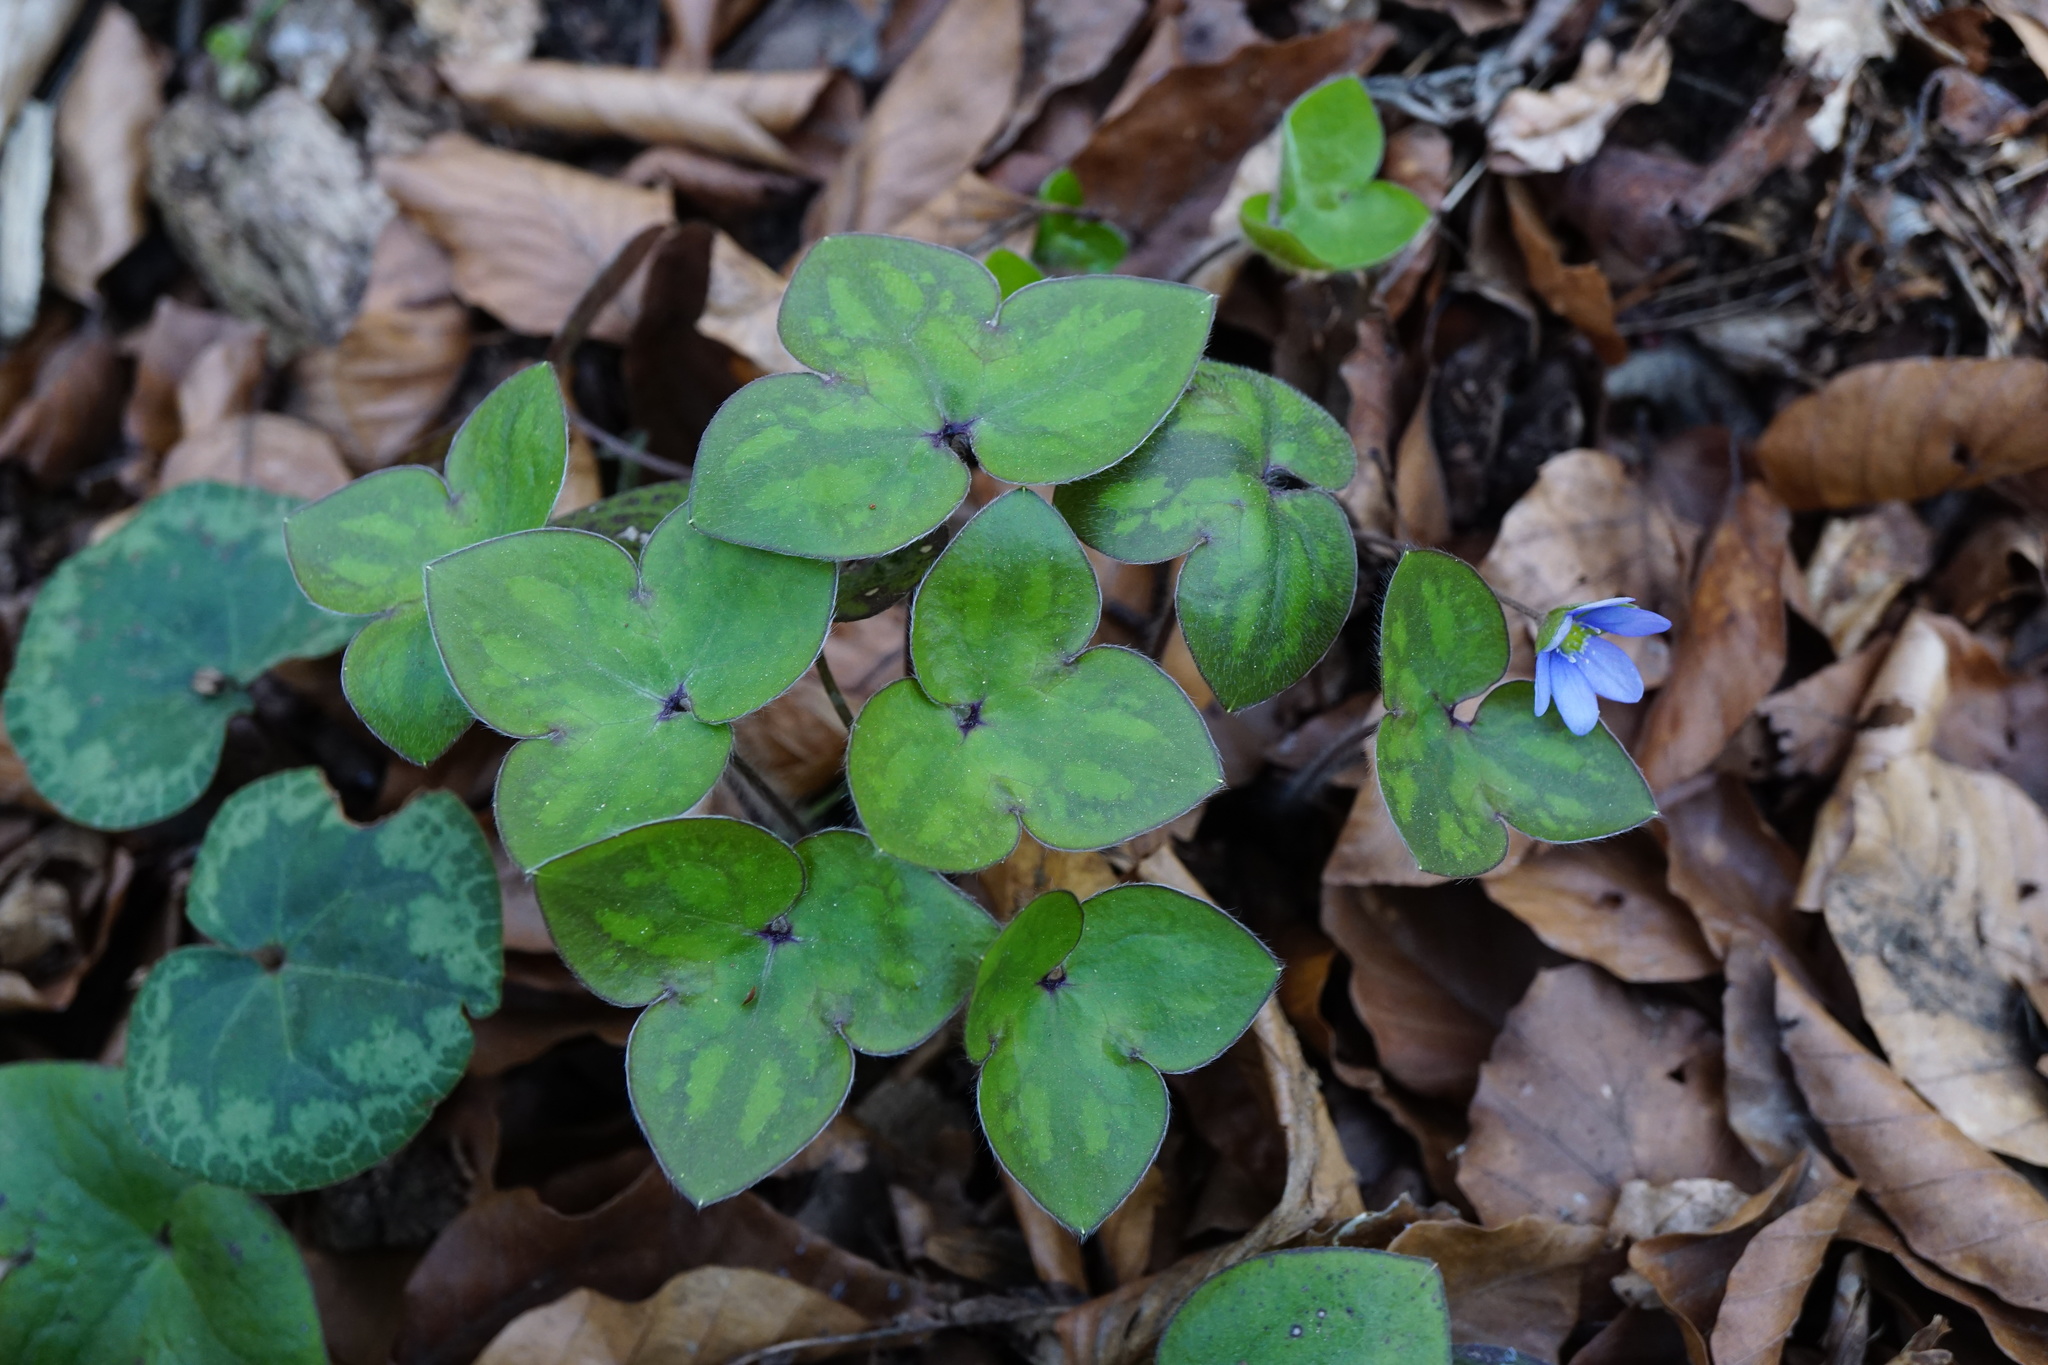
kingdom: Plantae
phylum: Tracheophyta
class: Magnoliopsida
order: Ranunculales
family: Ranunculaceae
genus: Hepatica
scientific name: Hepatica nobilis
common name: Liverleaf
